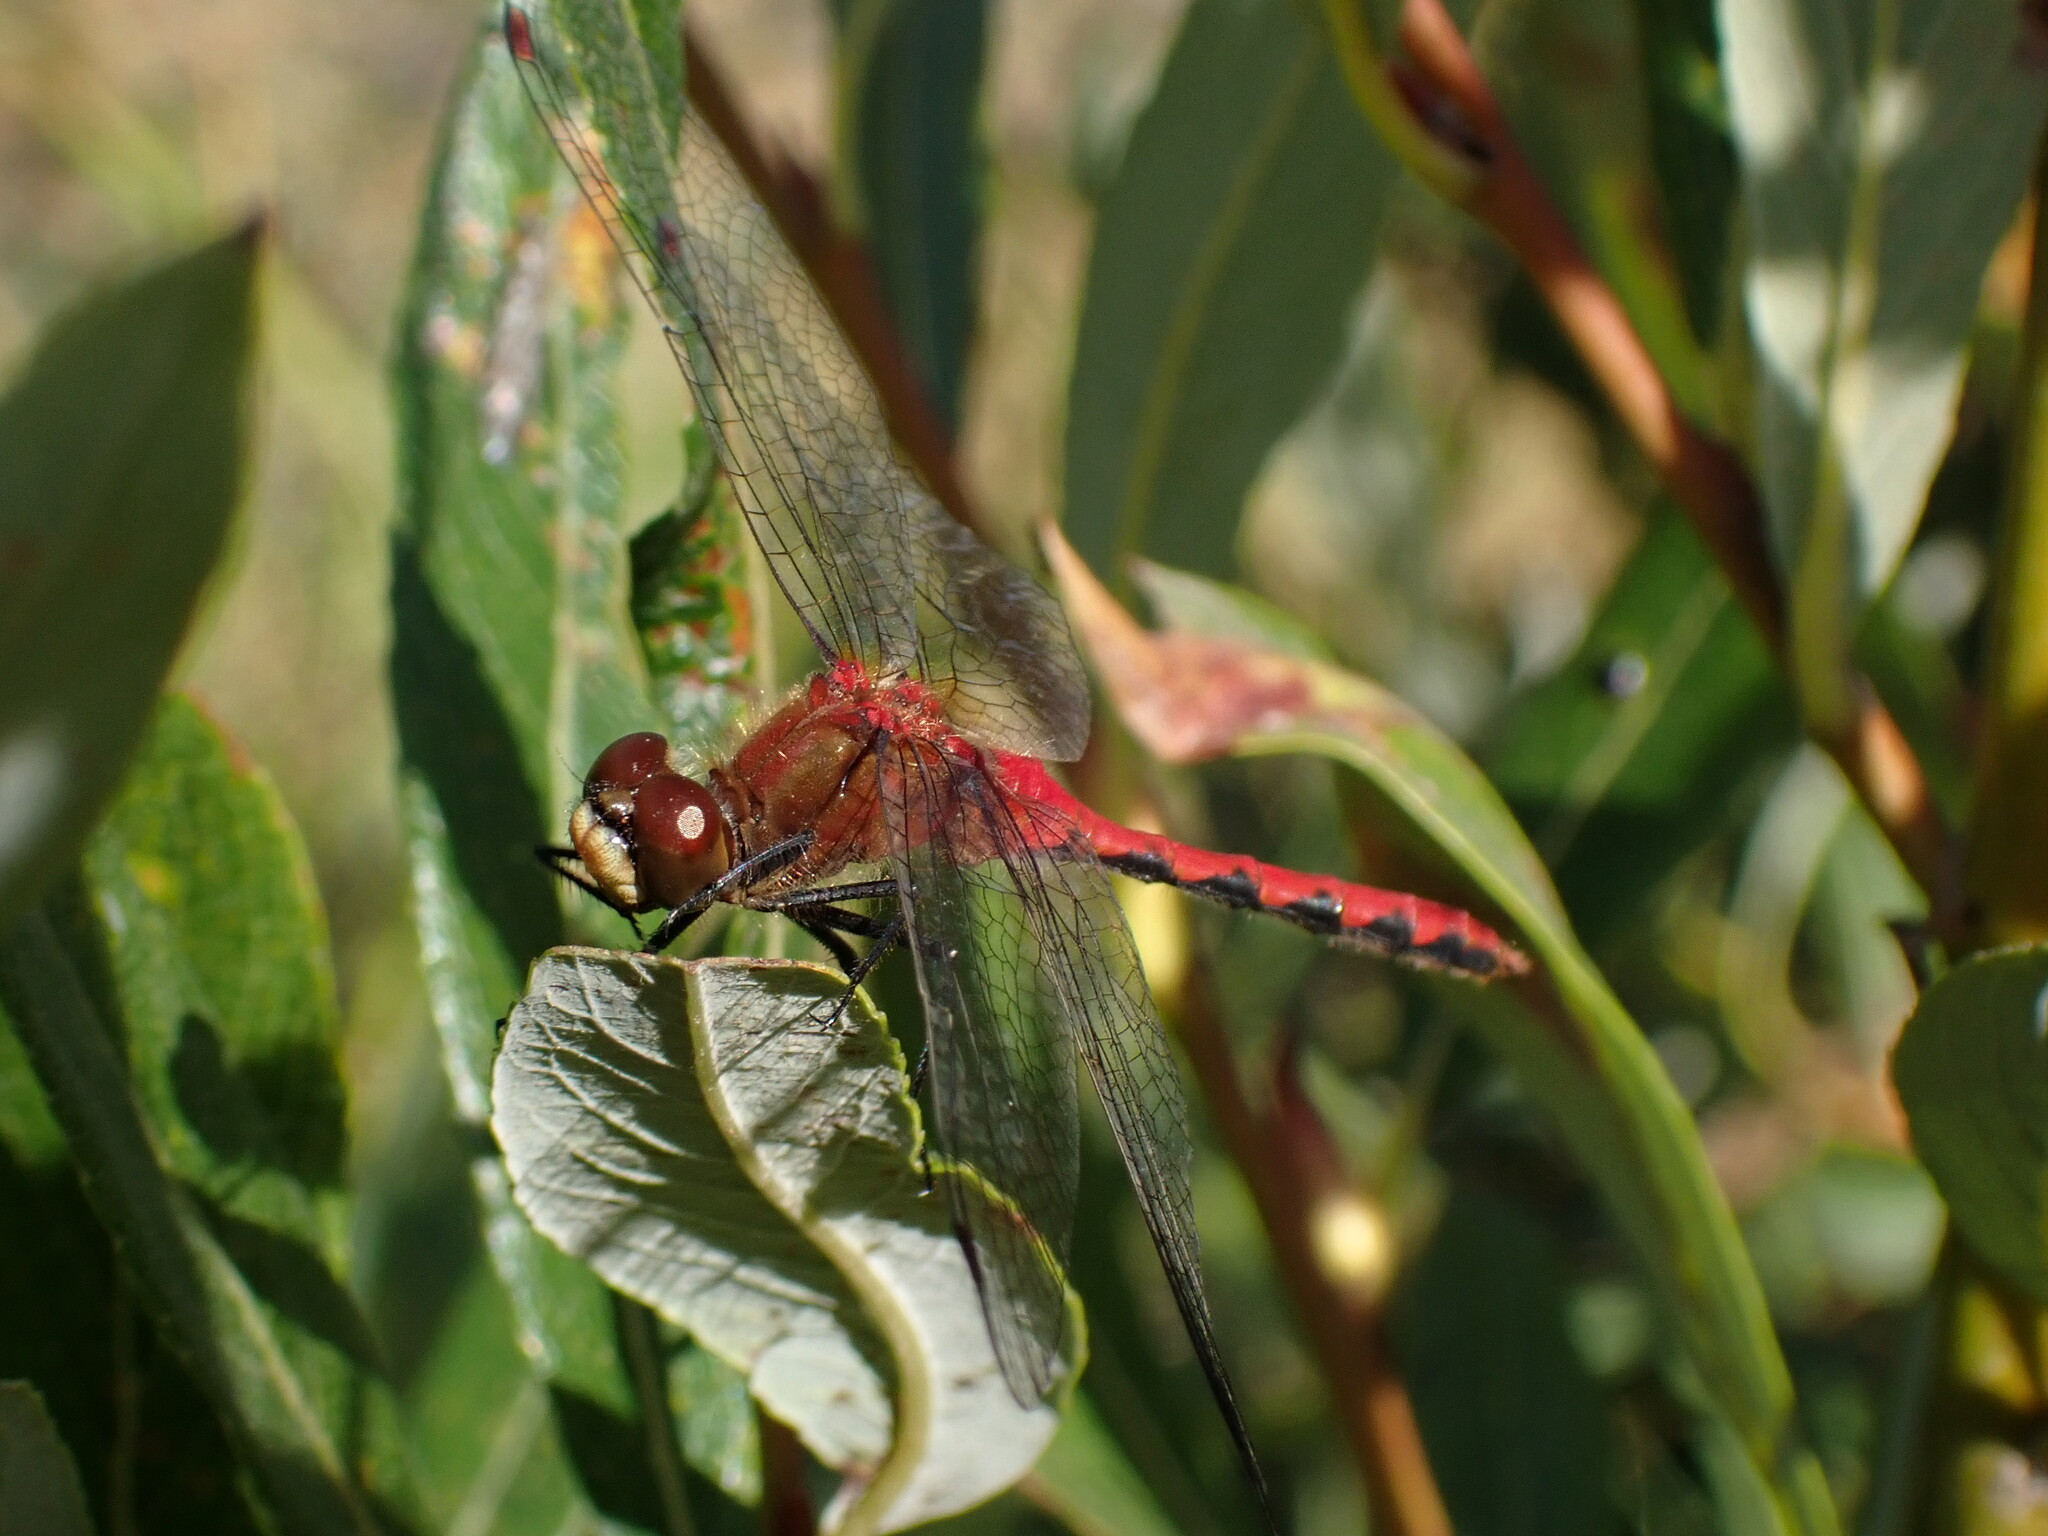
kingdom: Animalia
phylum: Arthropoda
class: Insecta
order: Odonata
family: Libellulidae
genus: Sympetrum
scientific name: Sympetrum obtrusum
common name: White-faced meadowhawk
